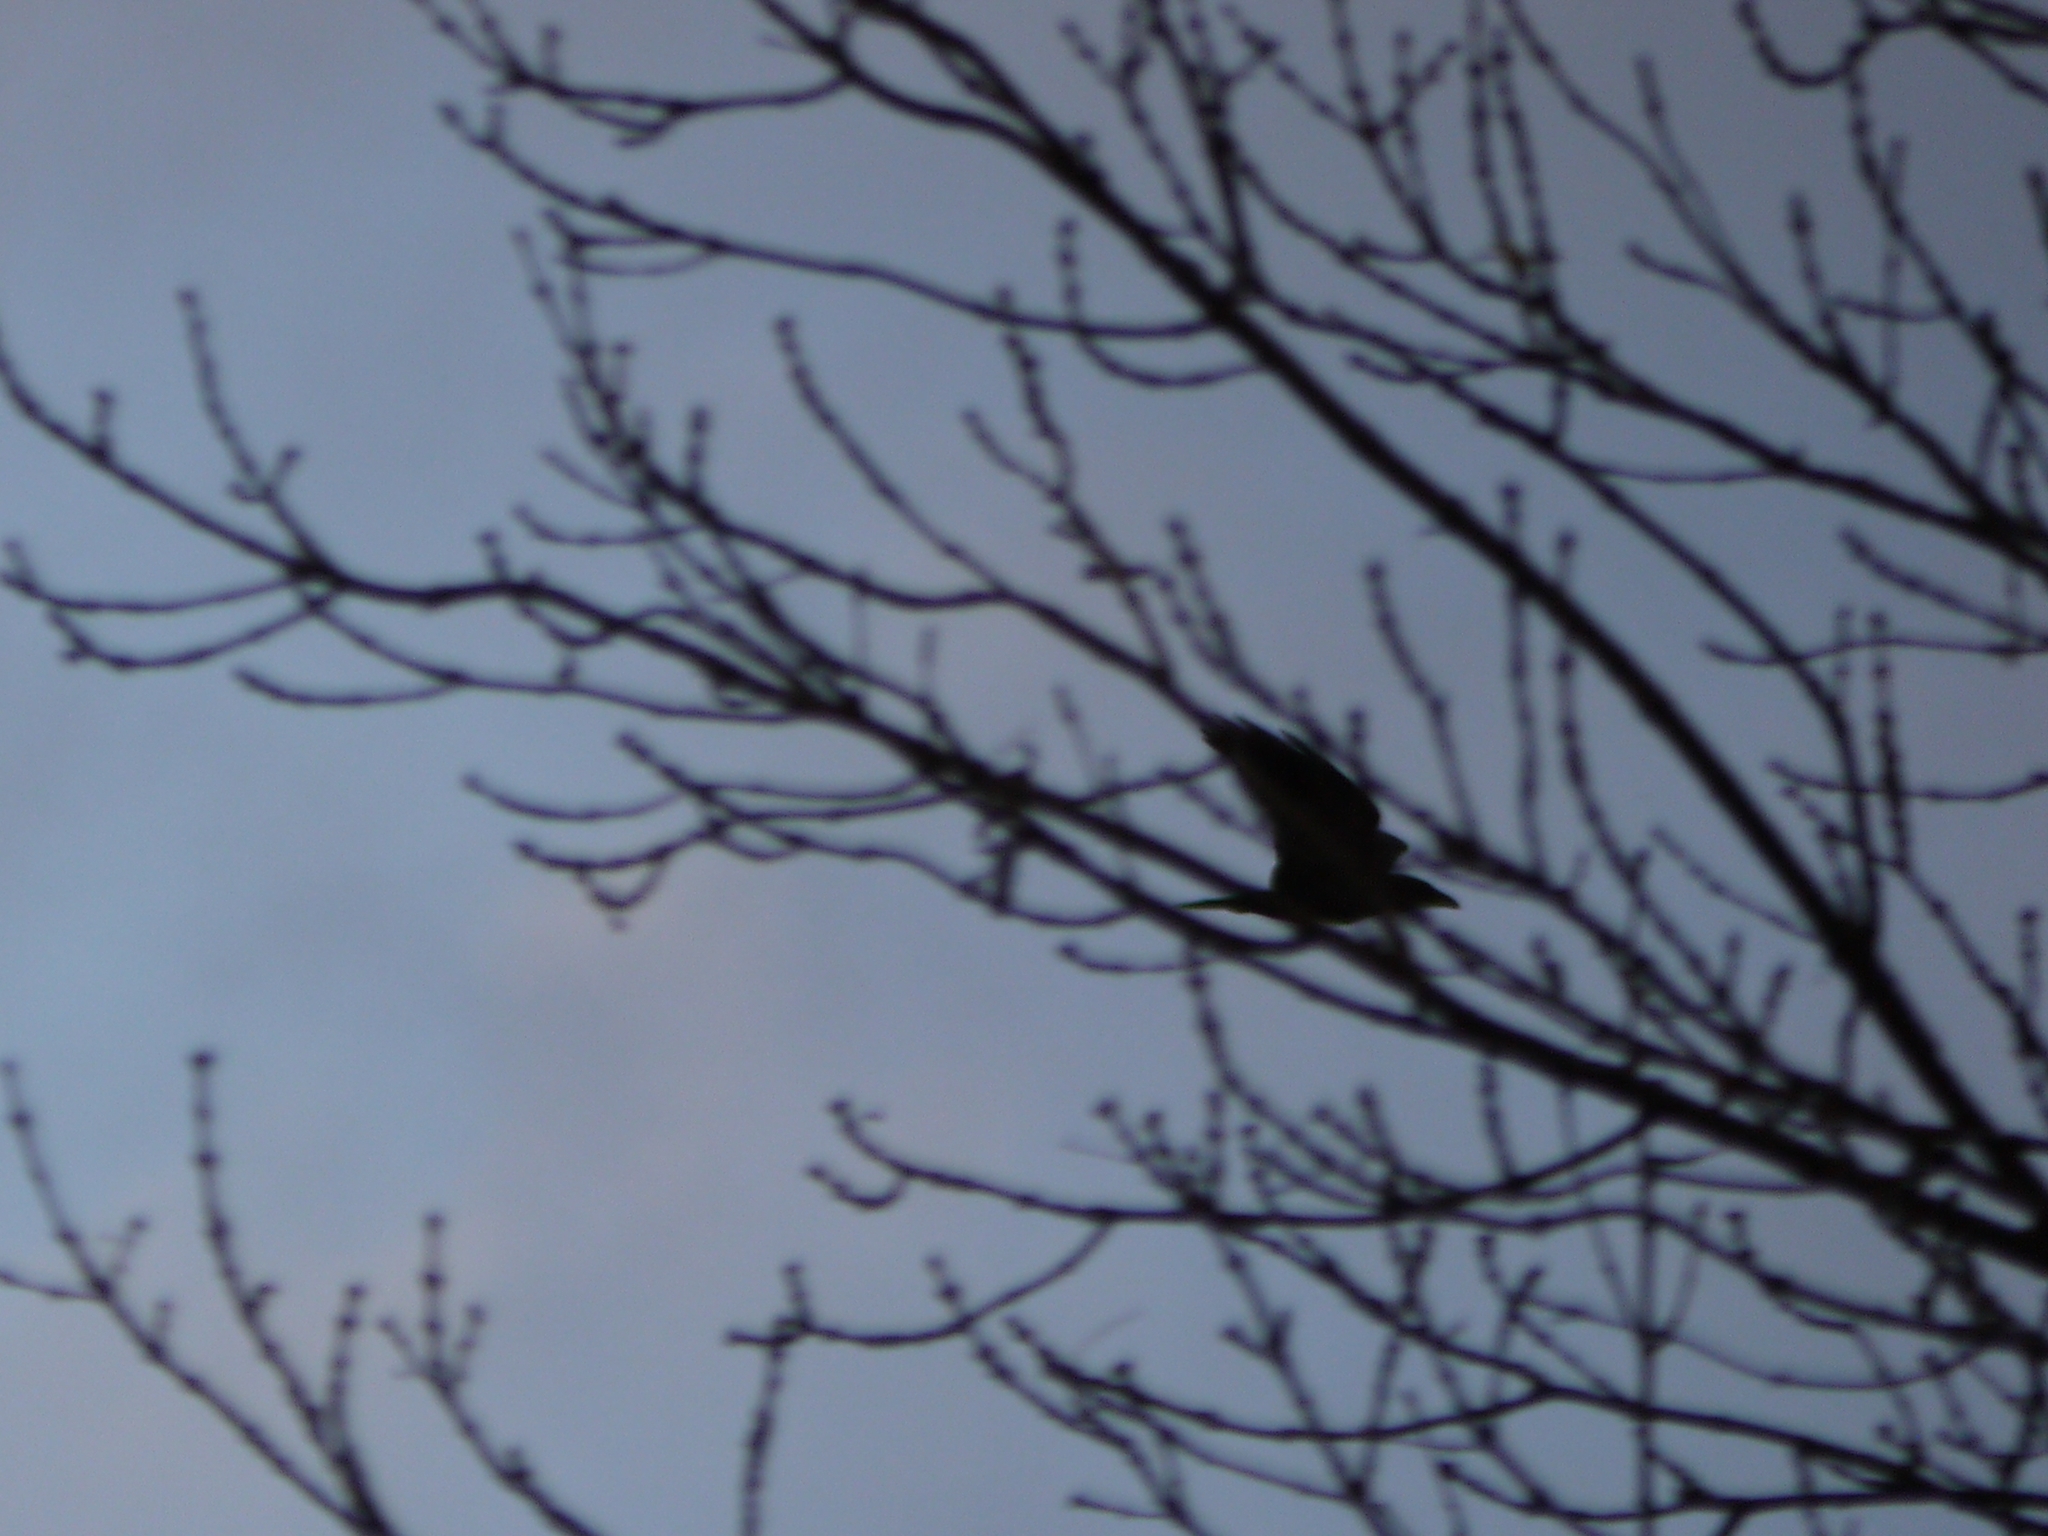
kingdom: Animalia
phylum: Chordata
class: Aves
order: Passeriformes
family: Corvidae
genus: Corvus
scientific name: Corvus corax
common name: Common raven
